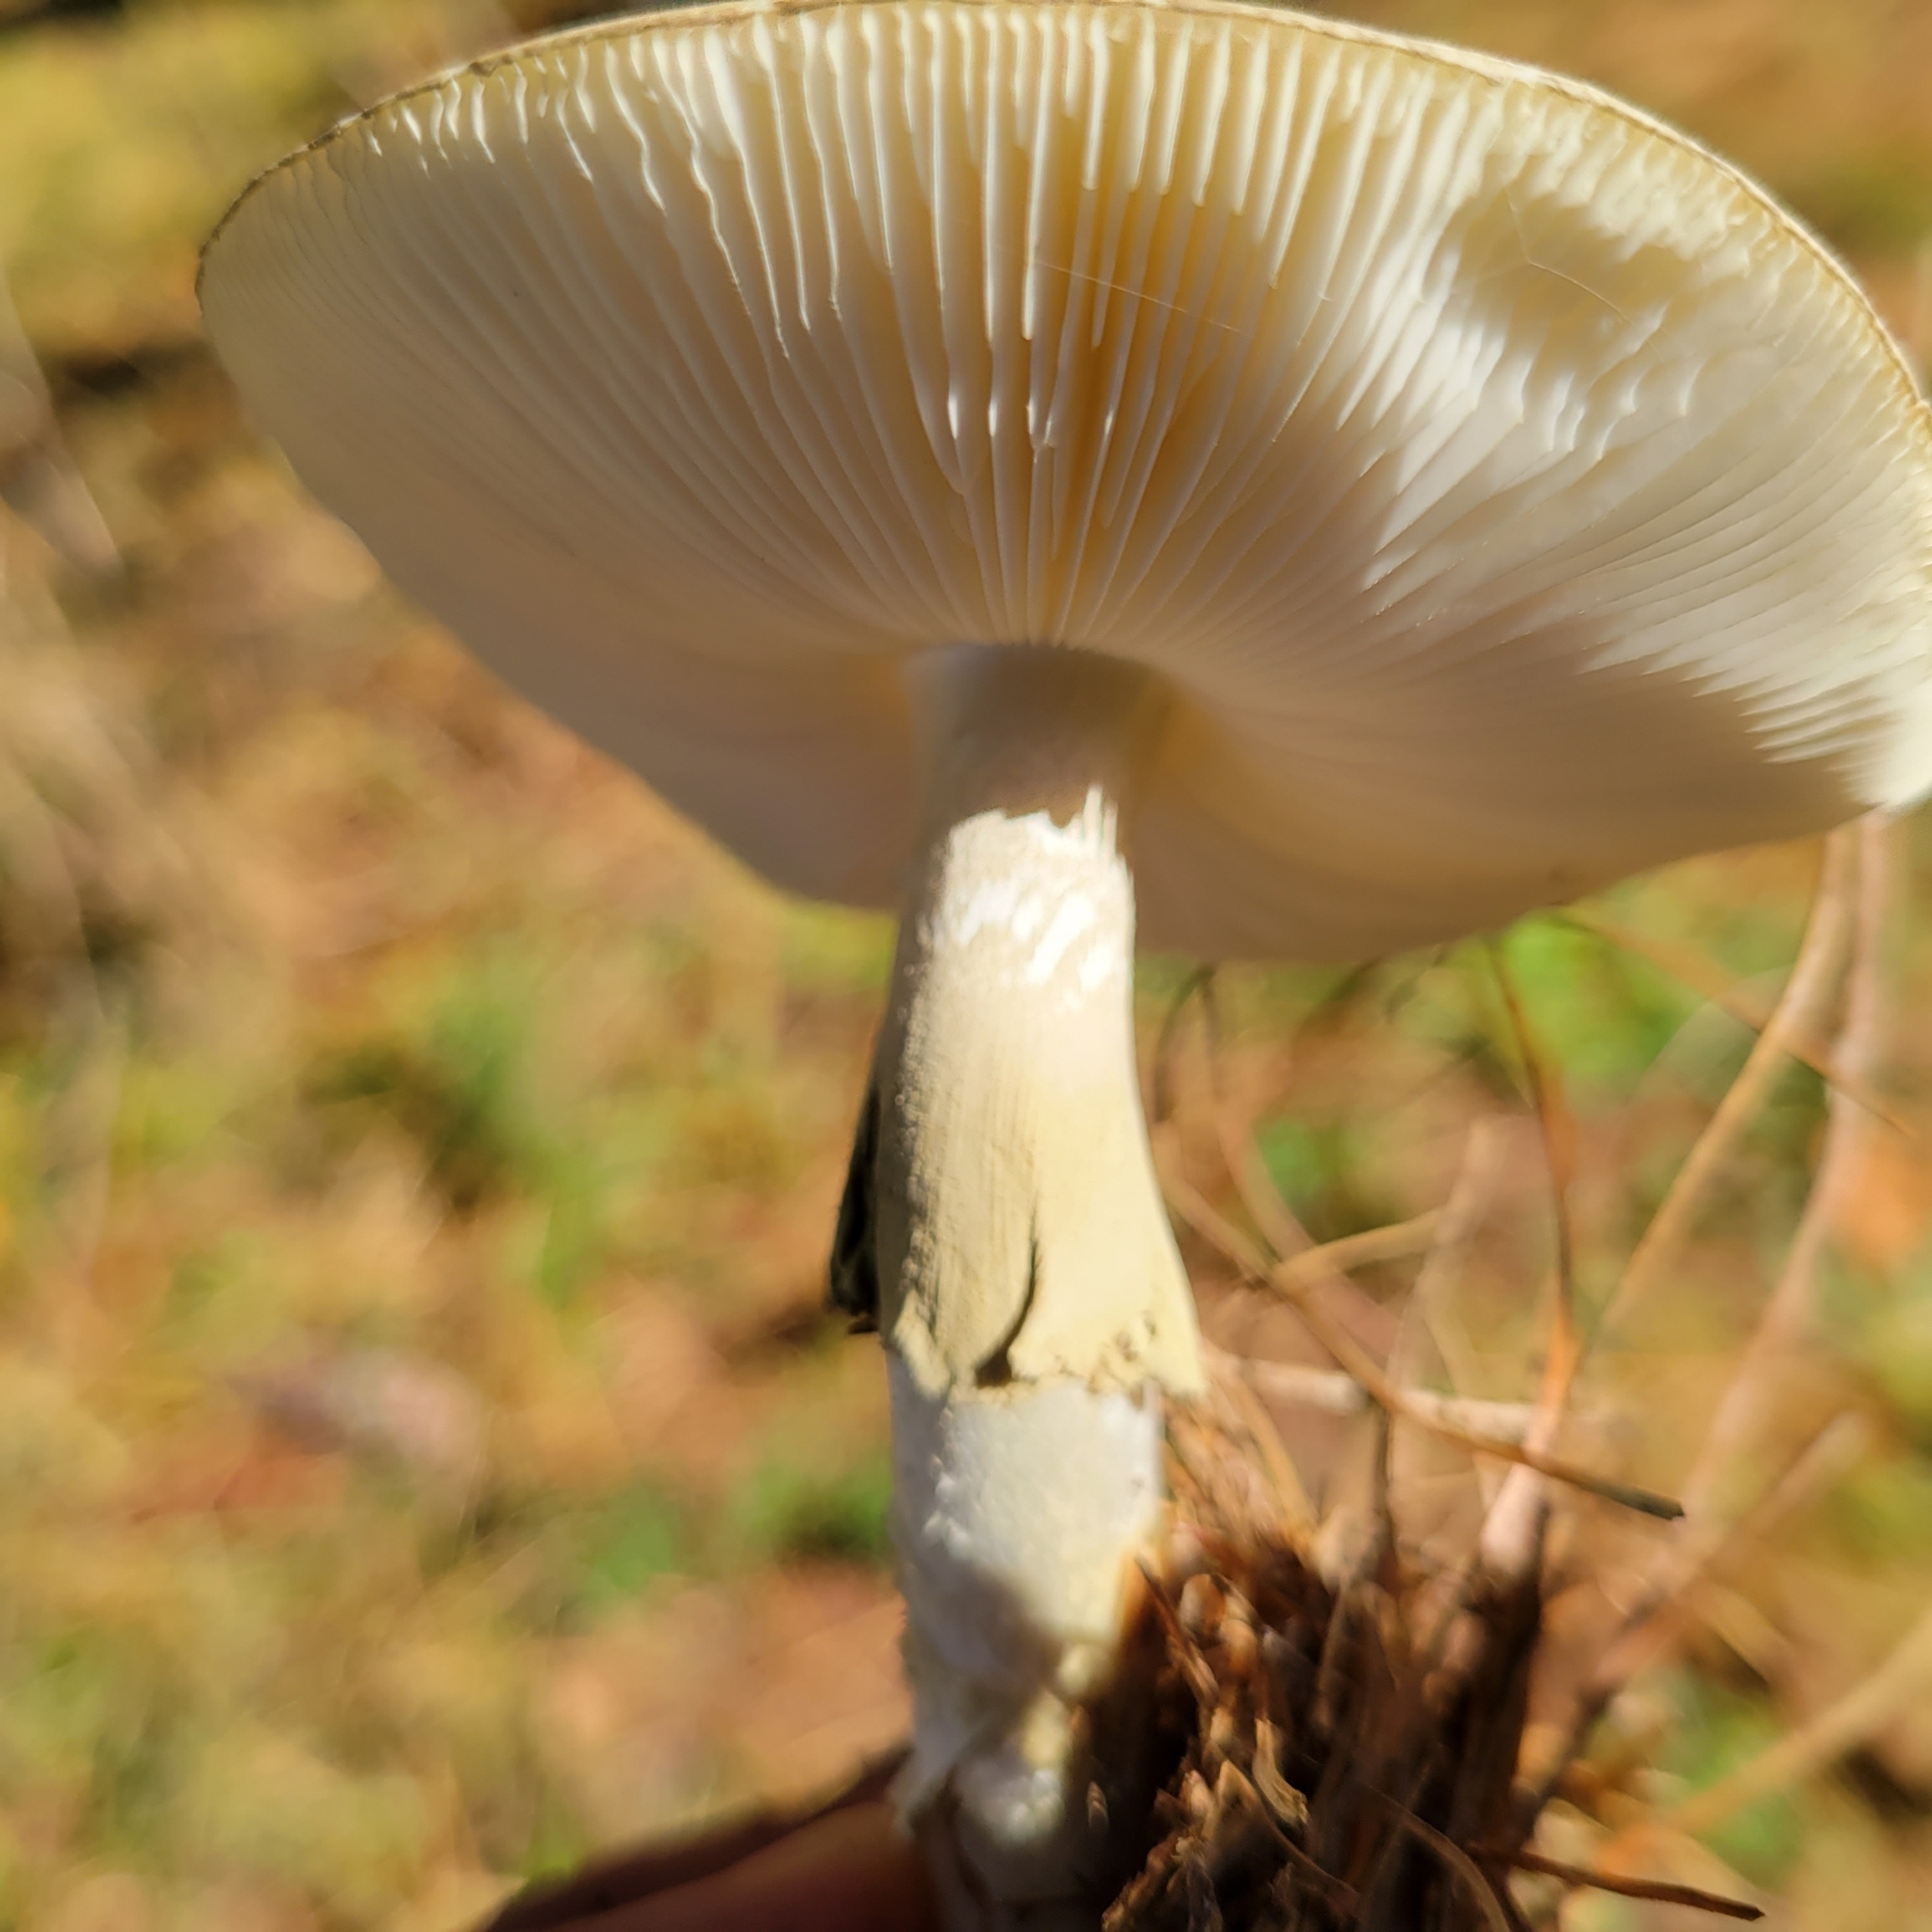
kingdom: Fungi
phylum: Basidiomycota
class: Agaricomycetes
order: Agaricales
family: Amanitaceae
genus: Amanita
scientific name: Amanita phalloides
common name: Death cap
